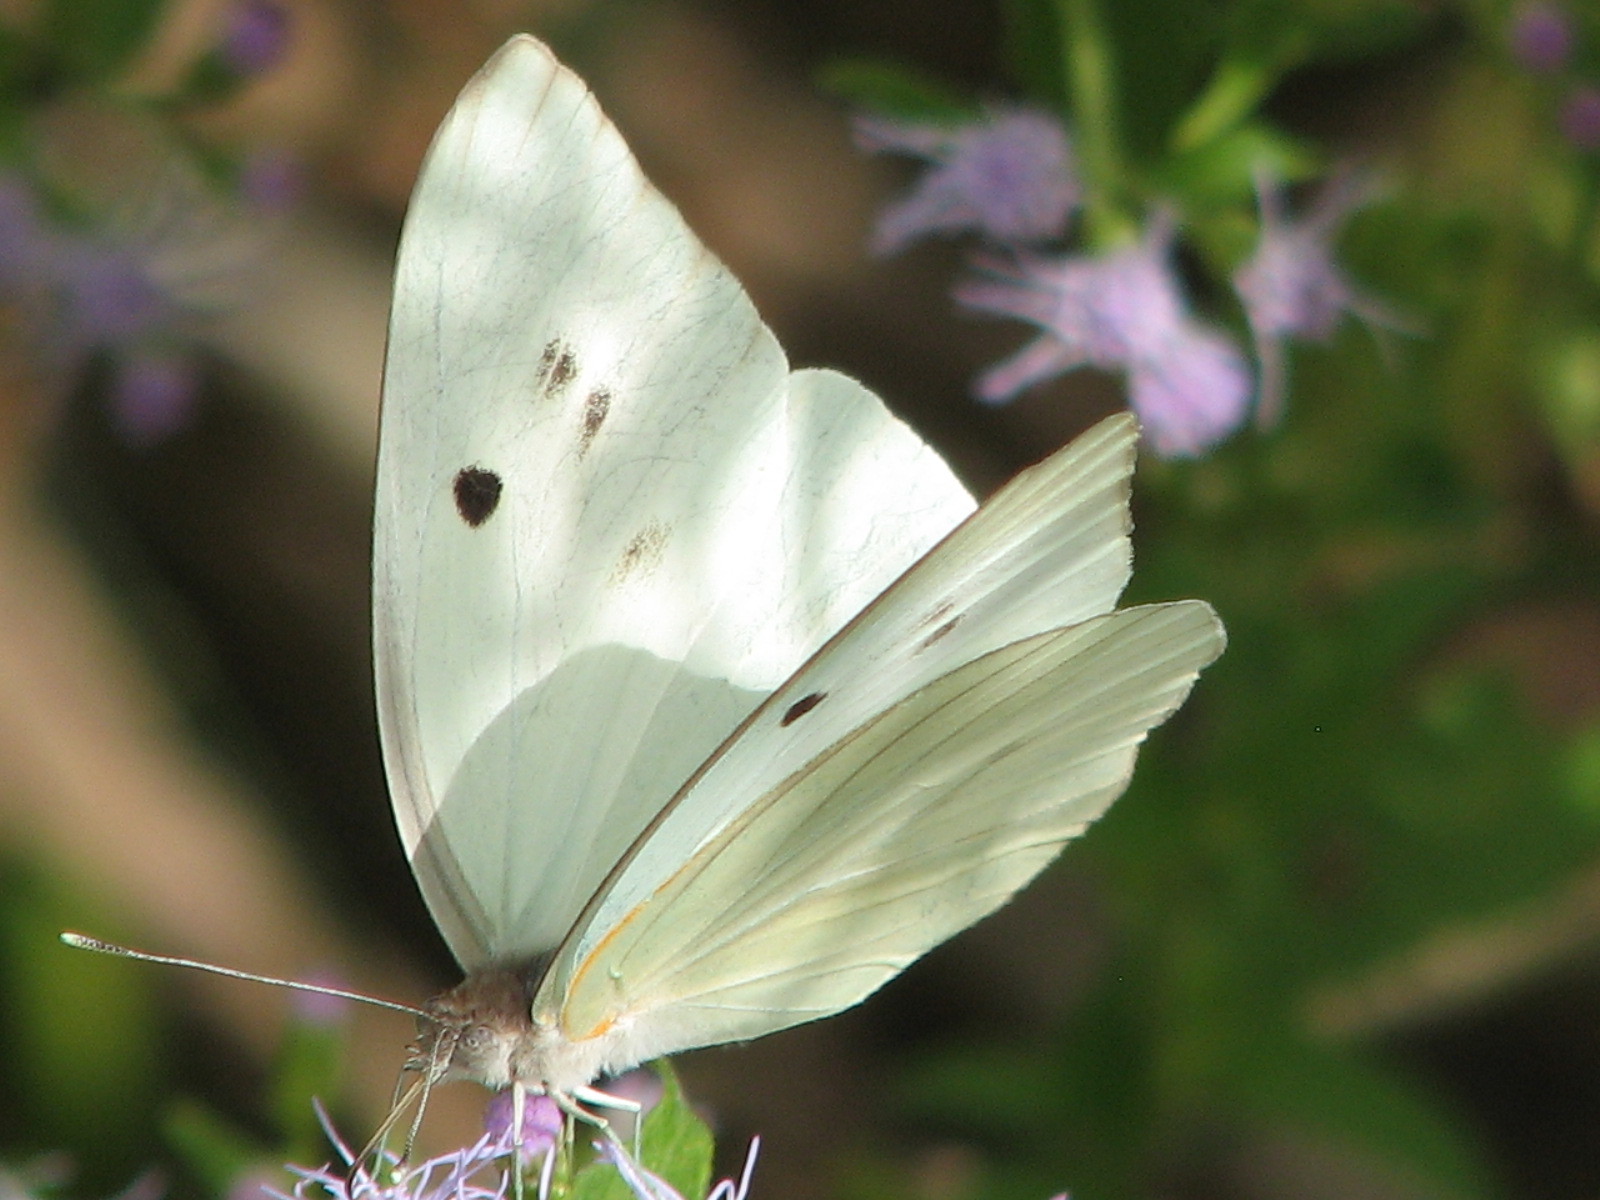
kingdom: Animalia
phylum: Arthropoda
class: Insecta
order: Lepidoptera
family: Pieridae
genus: Ganyra
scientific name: Ganyra josephina
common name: Giant white
